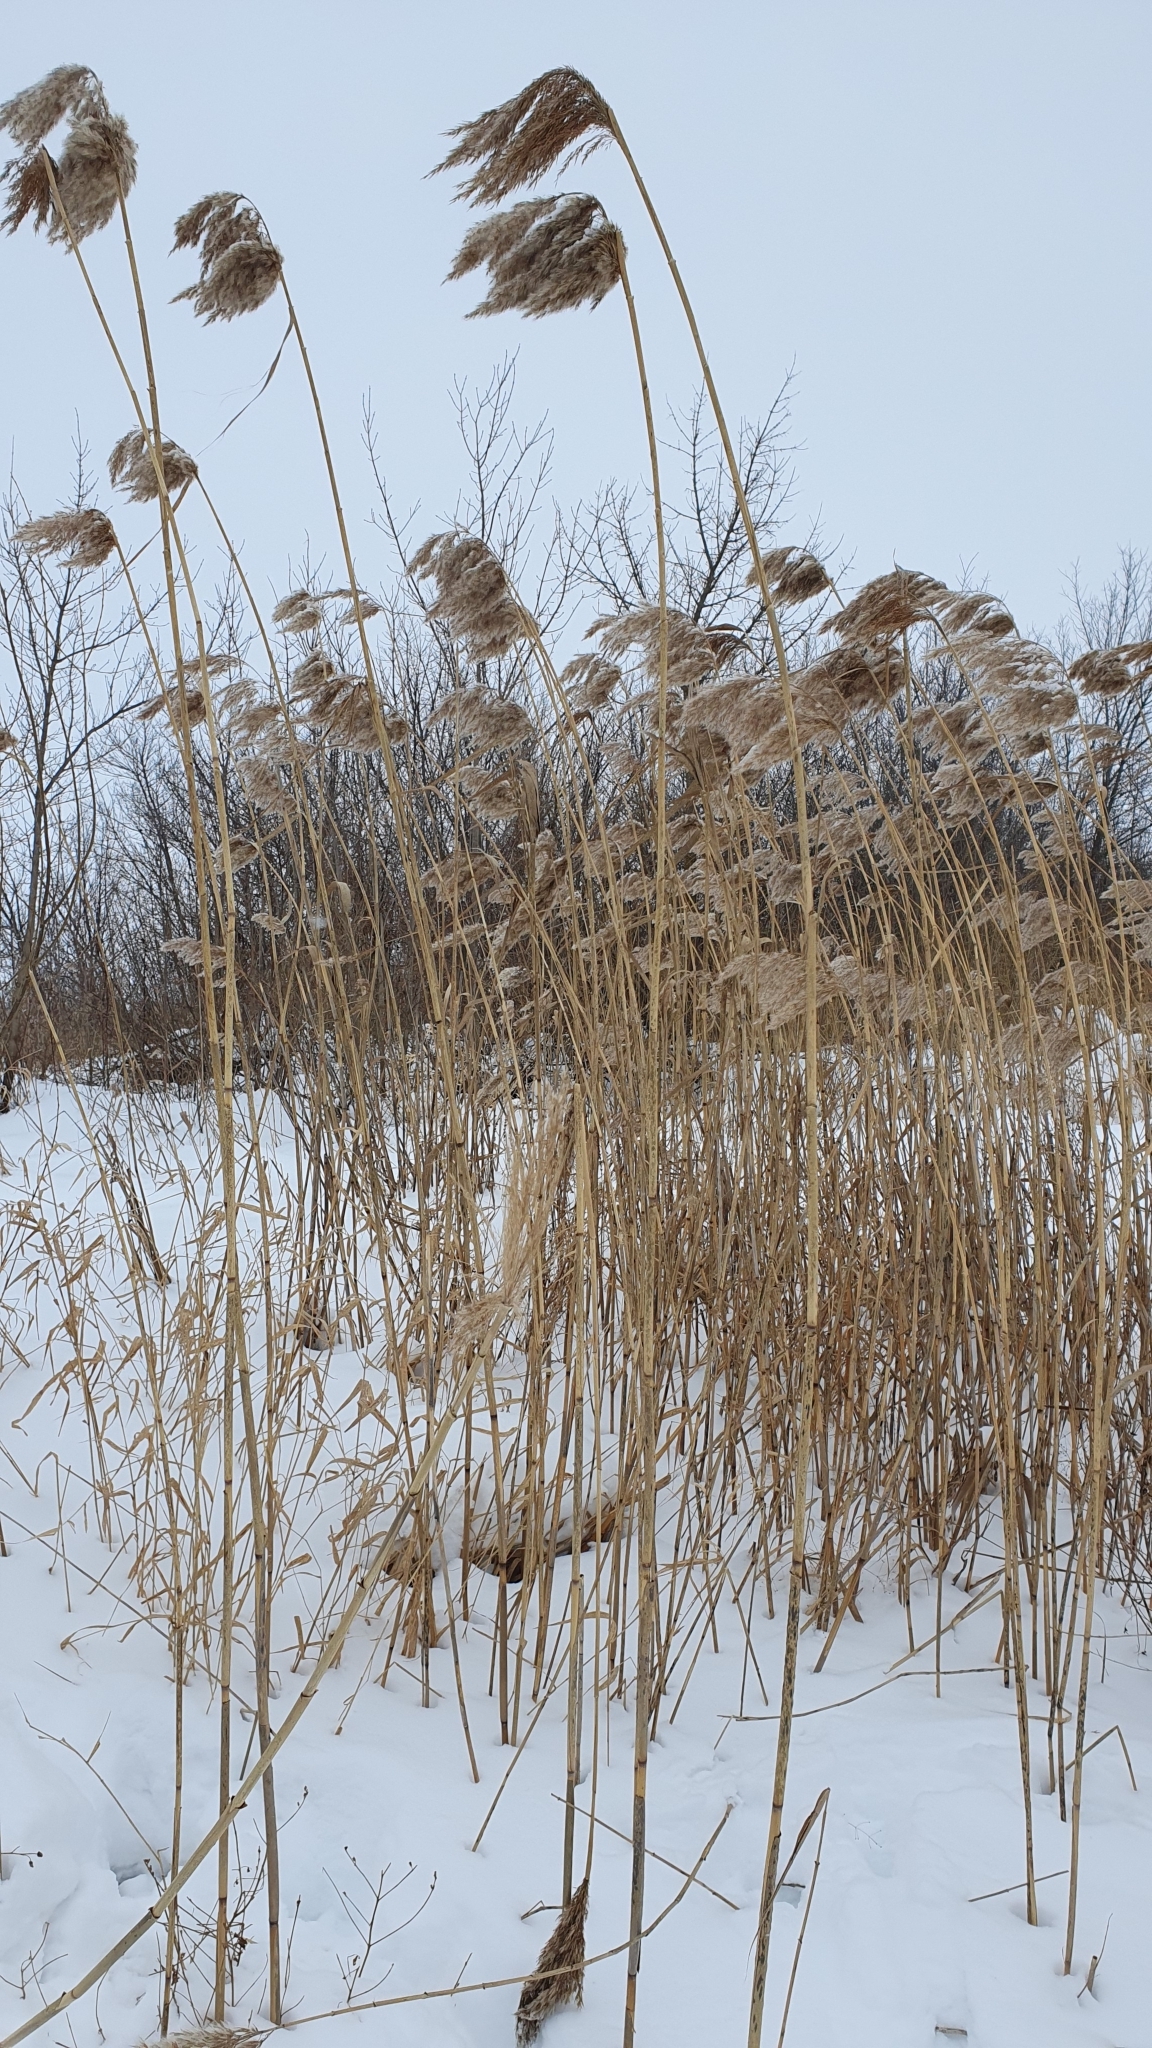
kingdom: Plantae
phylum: Tracheophyta
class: Liliopsida
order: Poales
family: Poaceae
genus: Phragmites
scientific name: Phragmites australis
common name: Common reed
